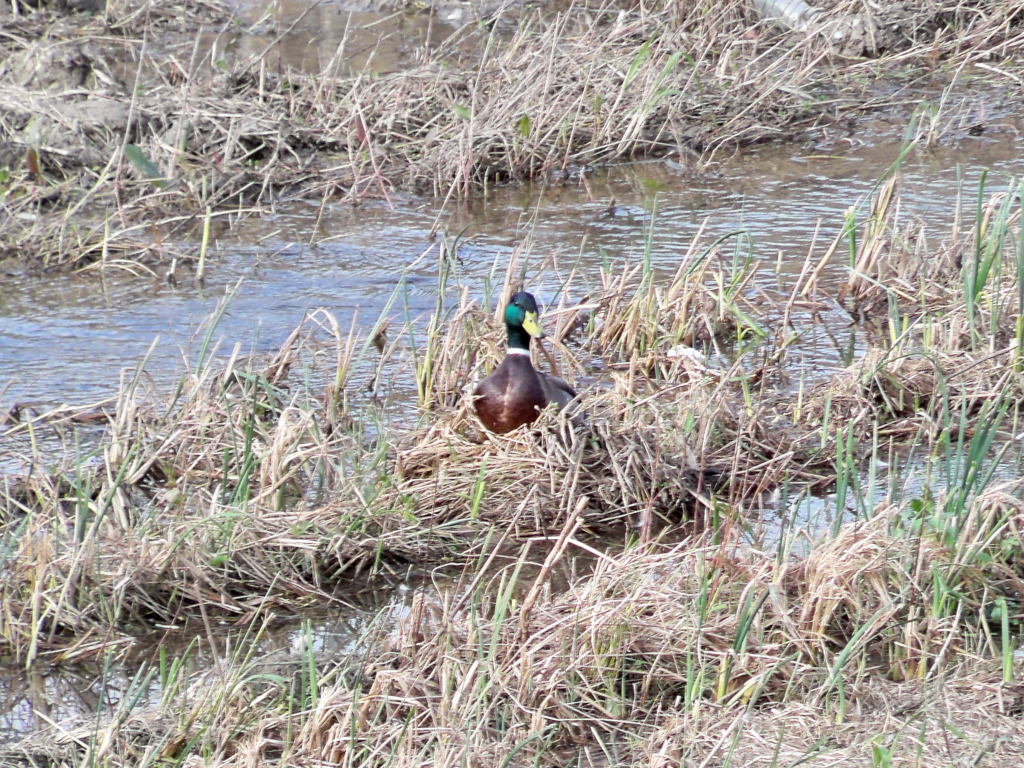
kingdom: Animalia
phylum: Chordata
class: Aves
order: Anseriformes
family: Anatidae
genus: Anas
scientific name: Anas platyrhynchos
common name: Mallard
